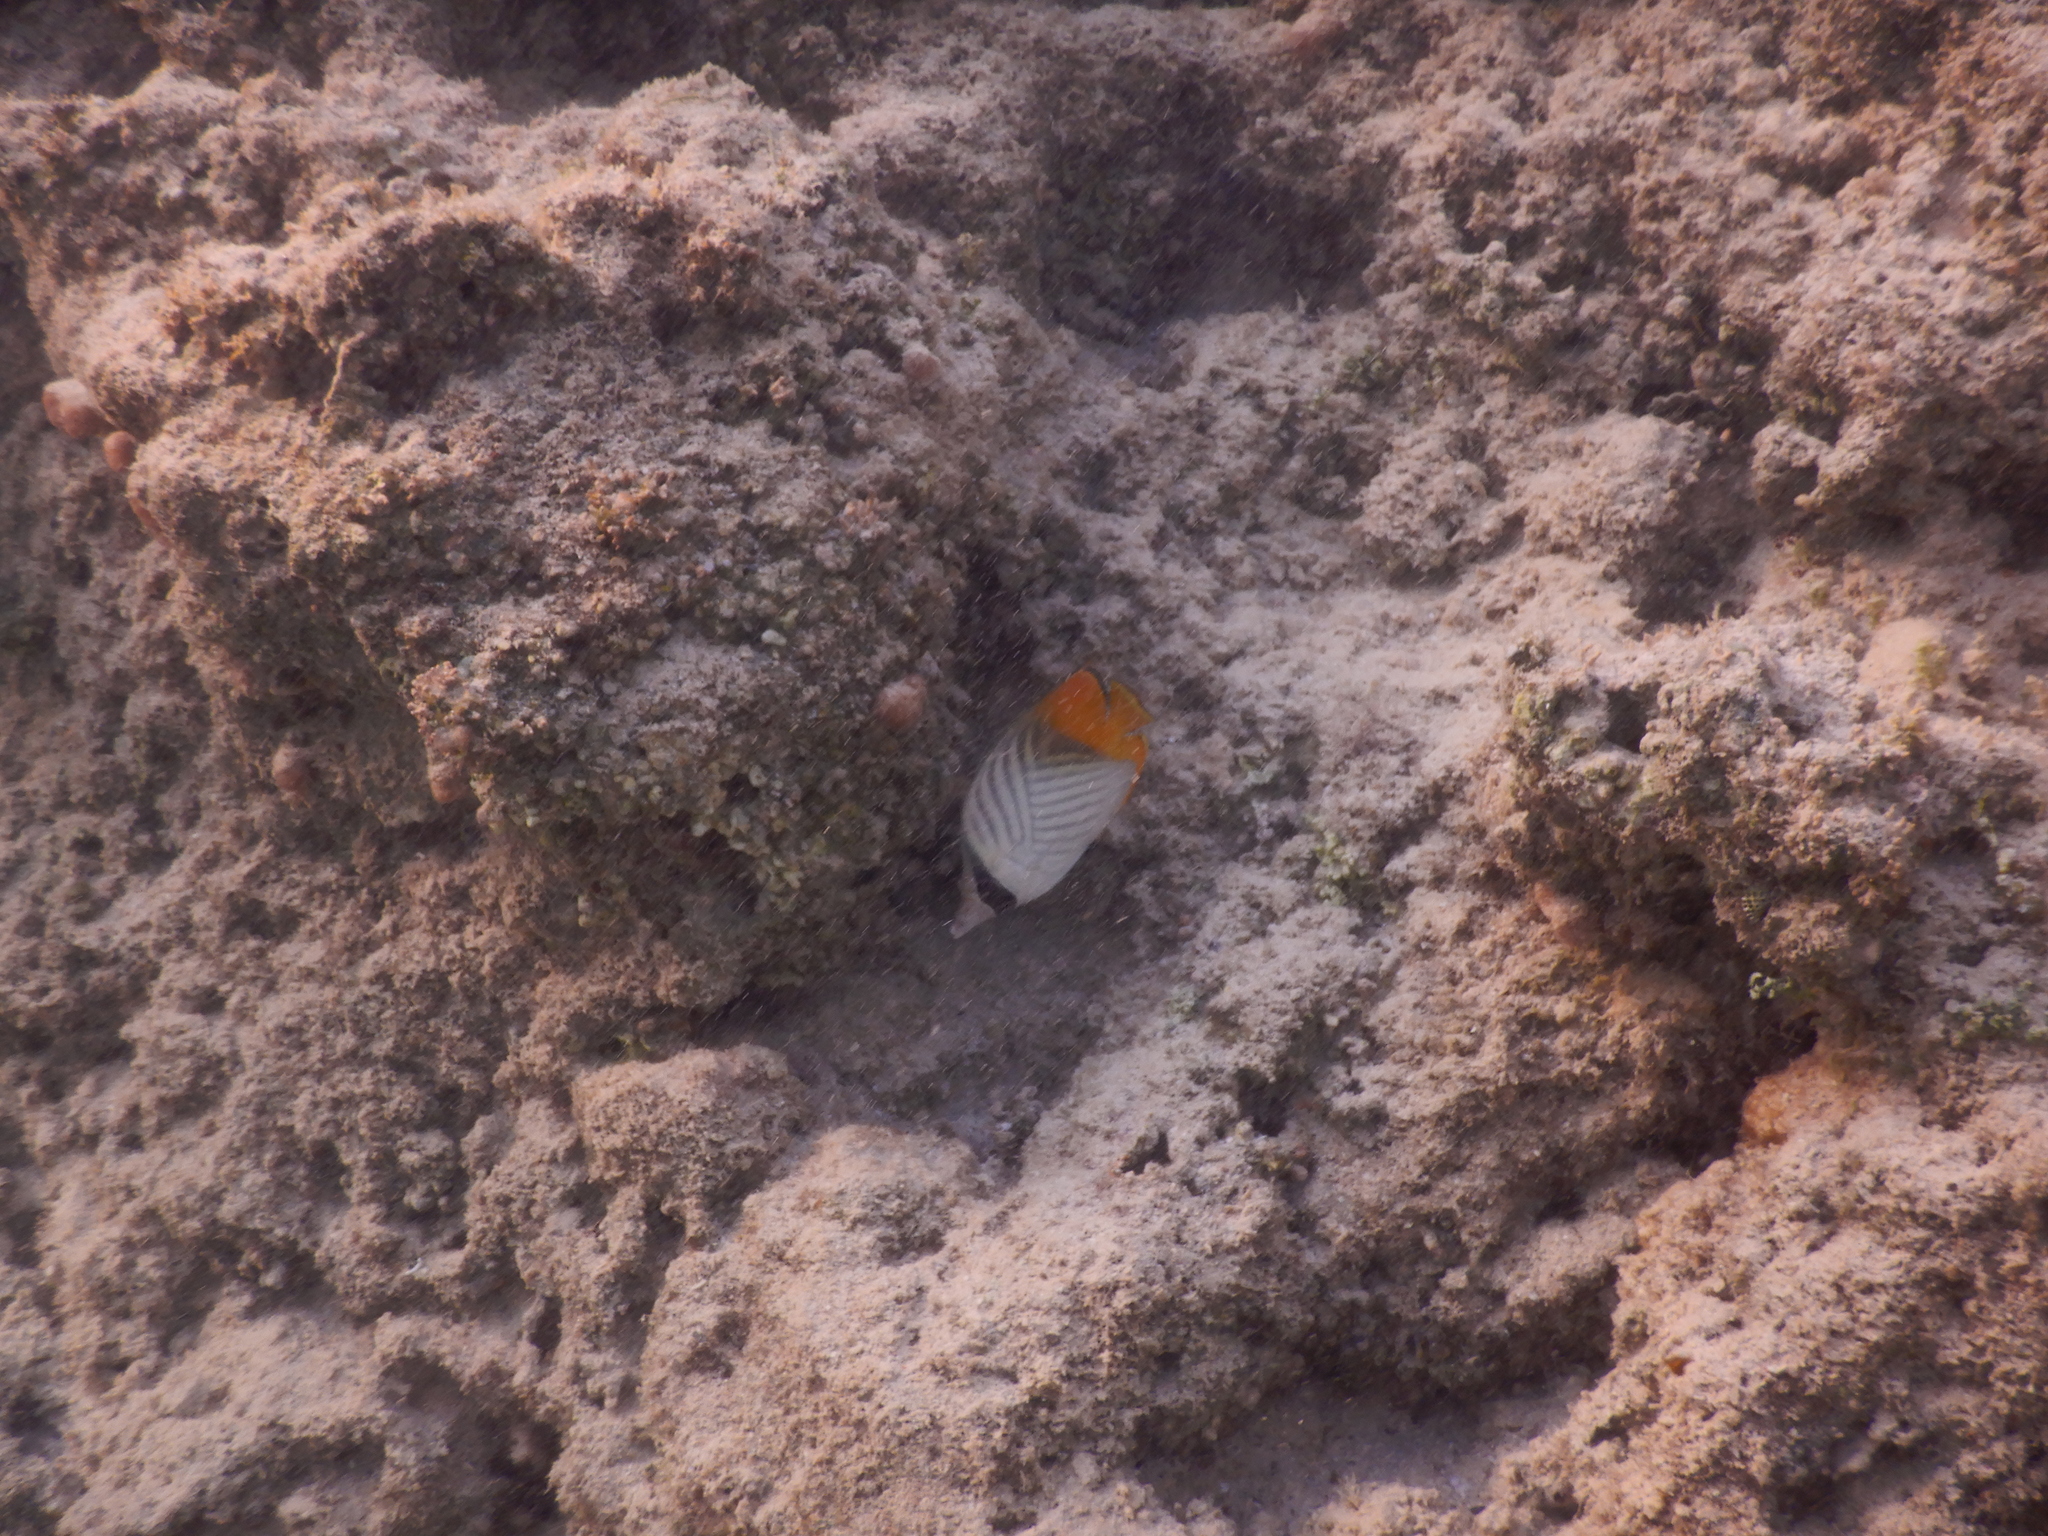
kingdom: Animalia
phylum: Chordata
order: Perciformes
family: Chaetodontidae
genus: Chaetodon
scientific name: Chaetodon auriga
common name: Threadfin butterflyfish
